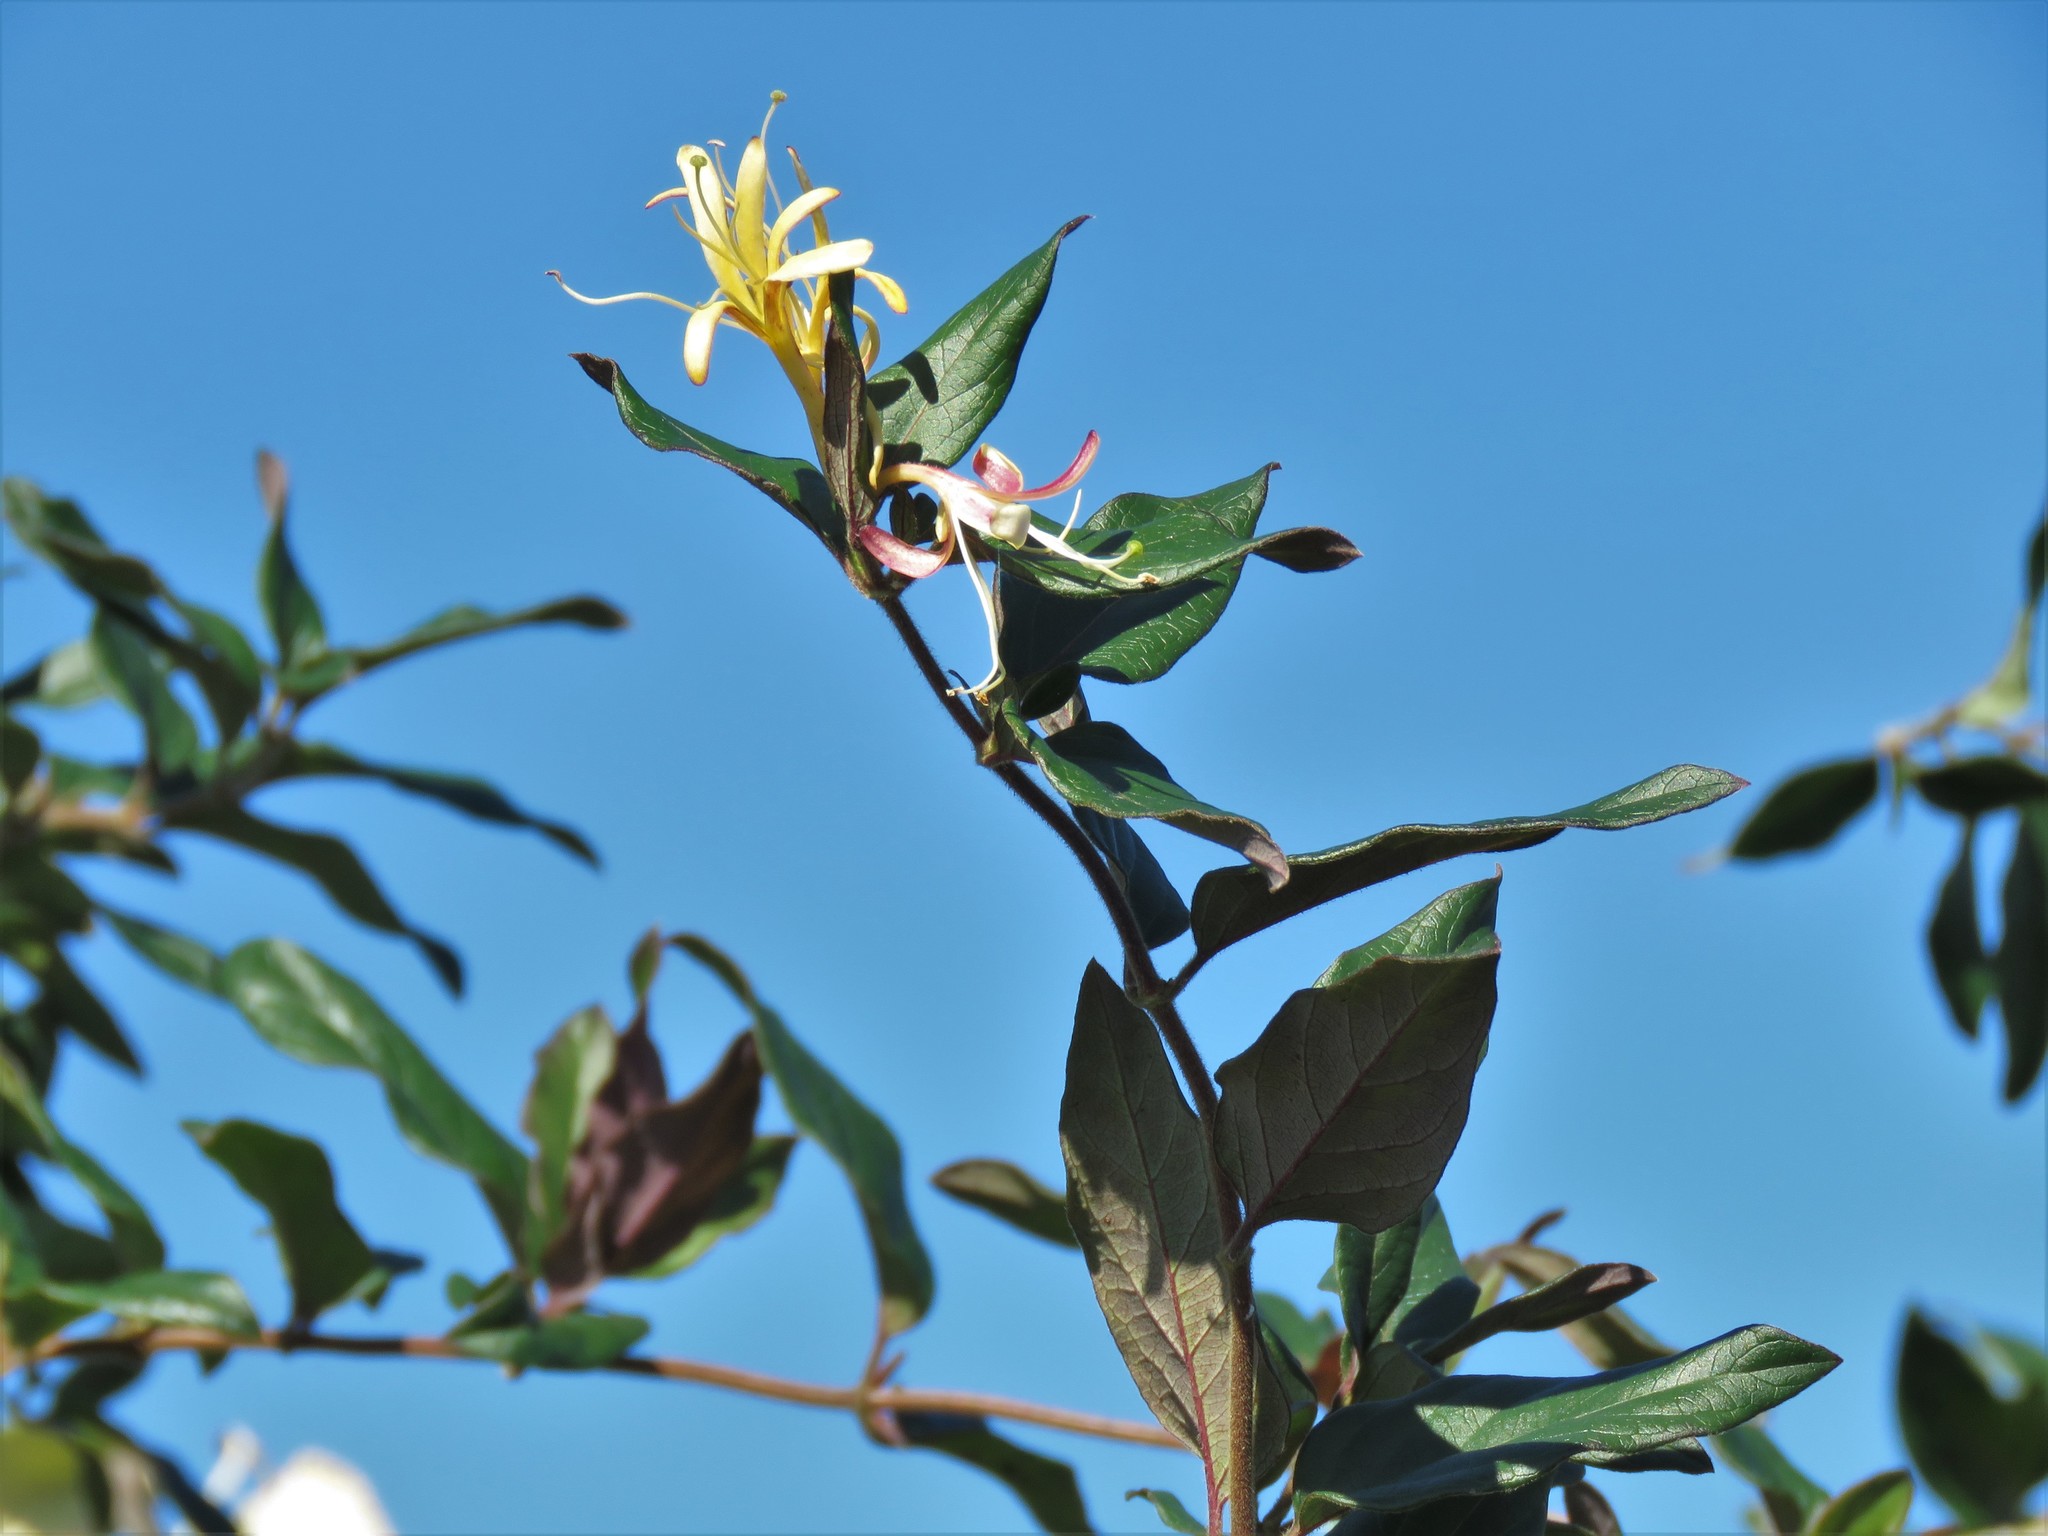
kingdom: Plantae
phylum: Tracheophyta
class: Magnoliopsida
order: Dipsacales
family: Caprifoliaceae
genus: Lonicera
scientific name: Lonicera japonica
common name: Japanese honeysuckle
